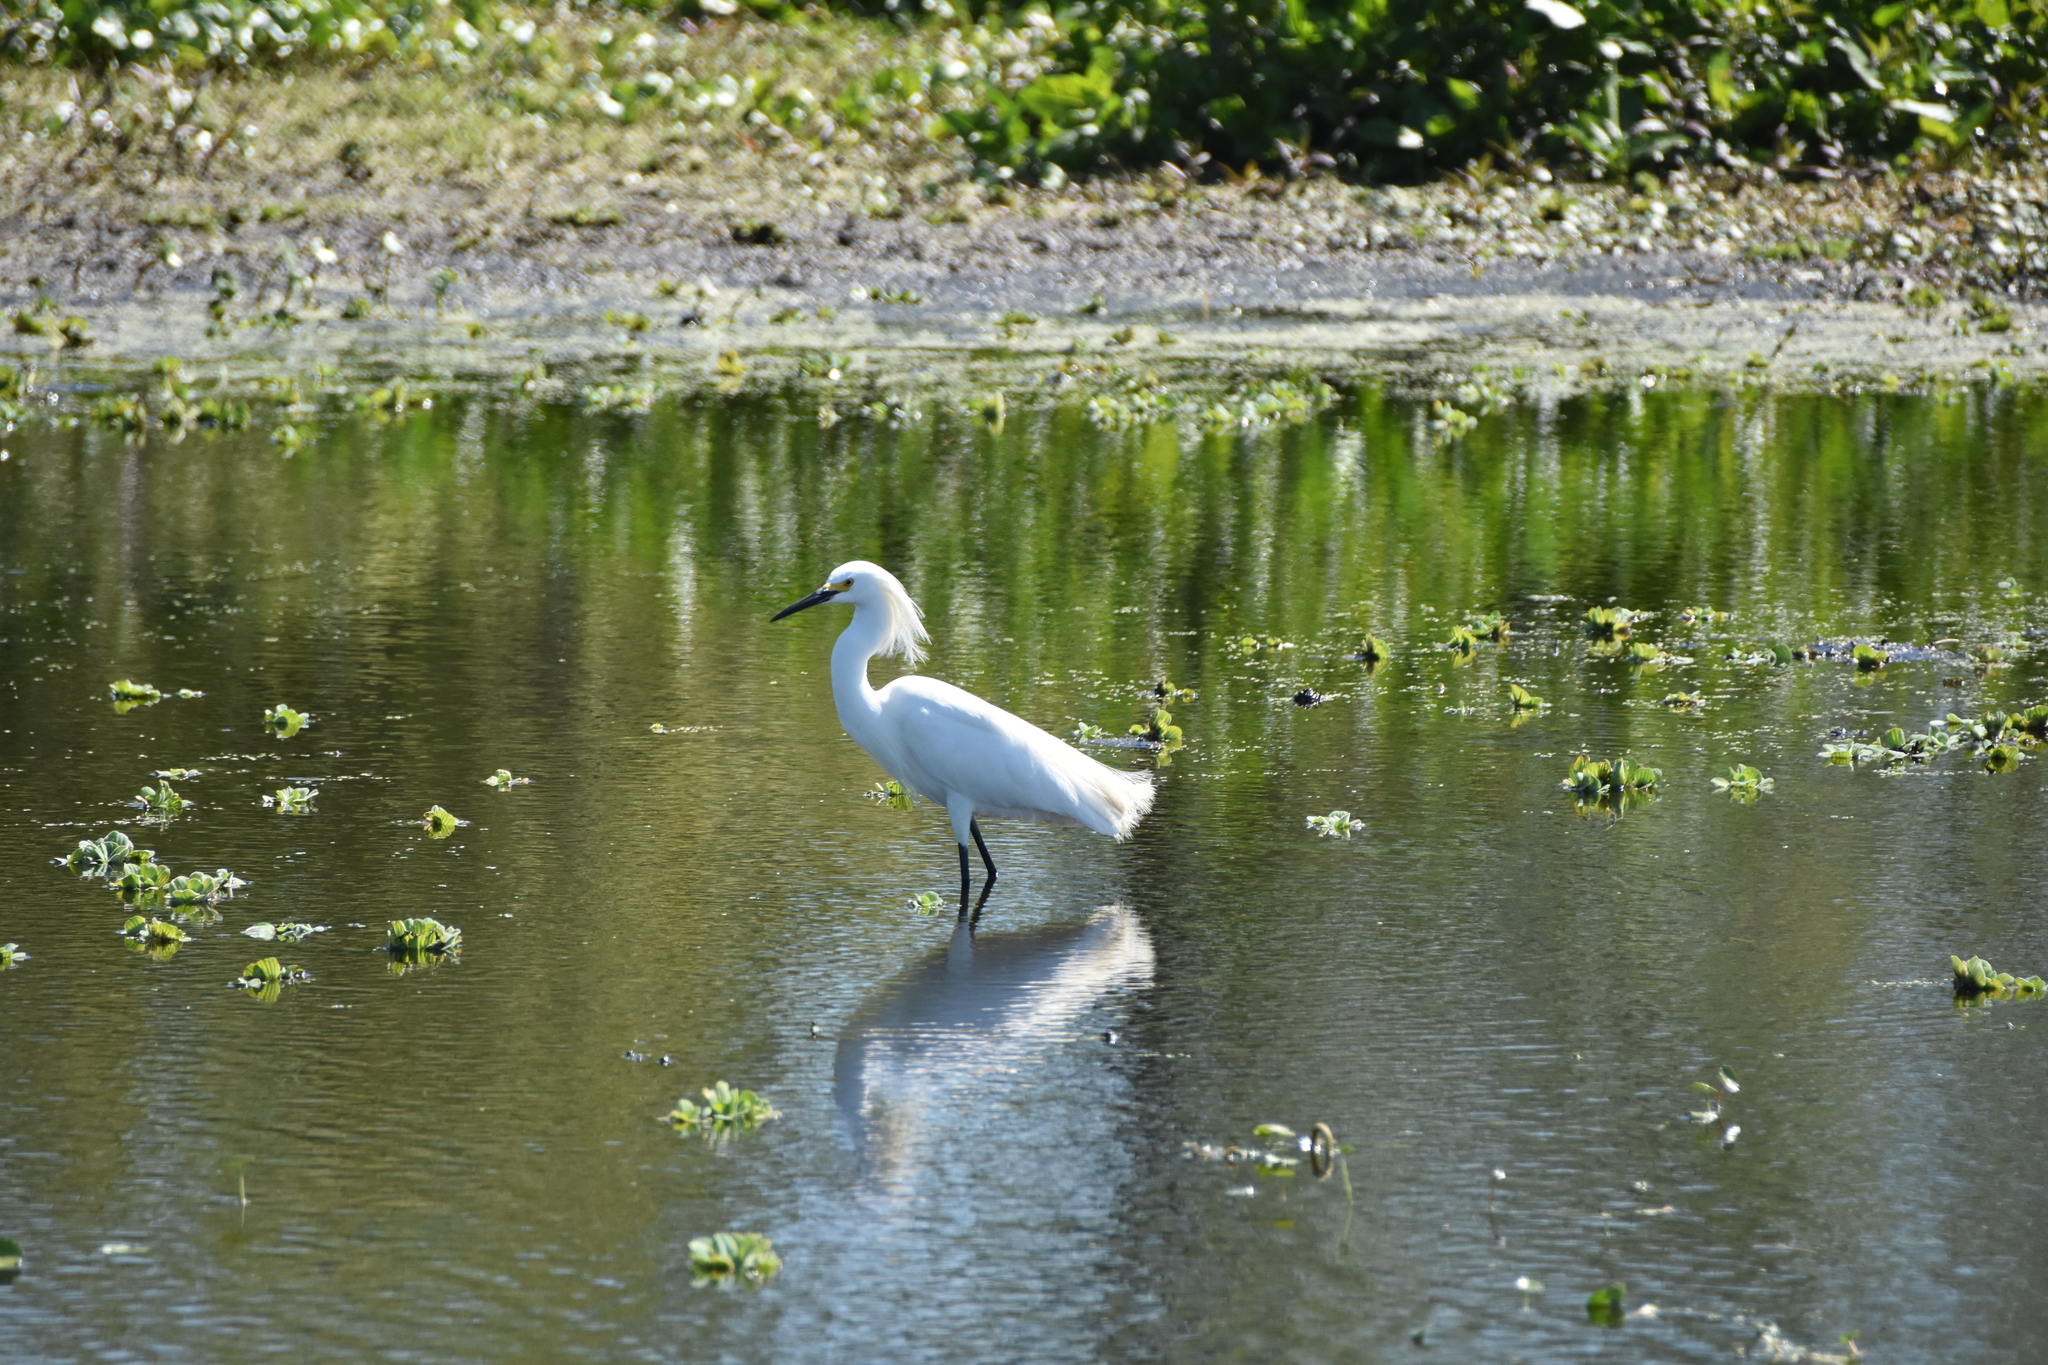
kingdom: Animalia
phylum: Chordata
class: Aves
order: Pelecaniformes
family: Ardeidae
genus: Egretta
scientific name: Egretta thula
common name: Snowy egret
